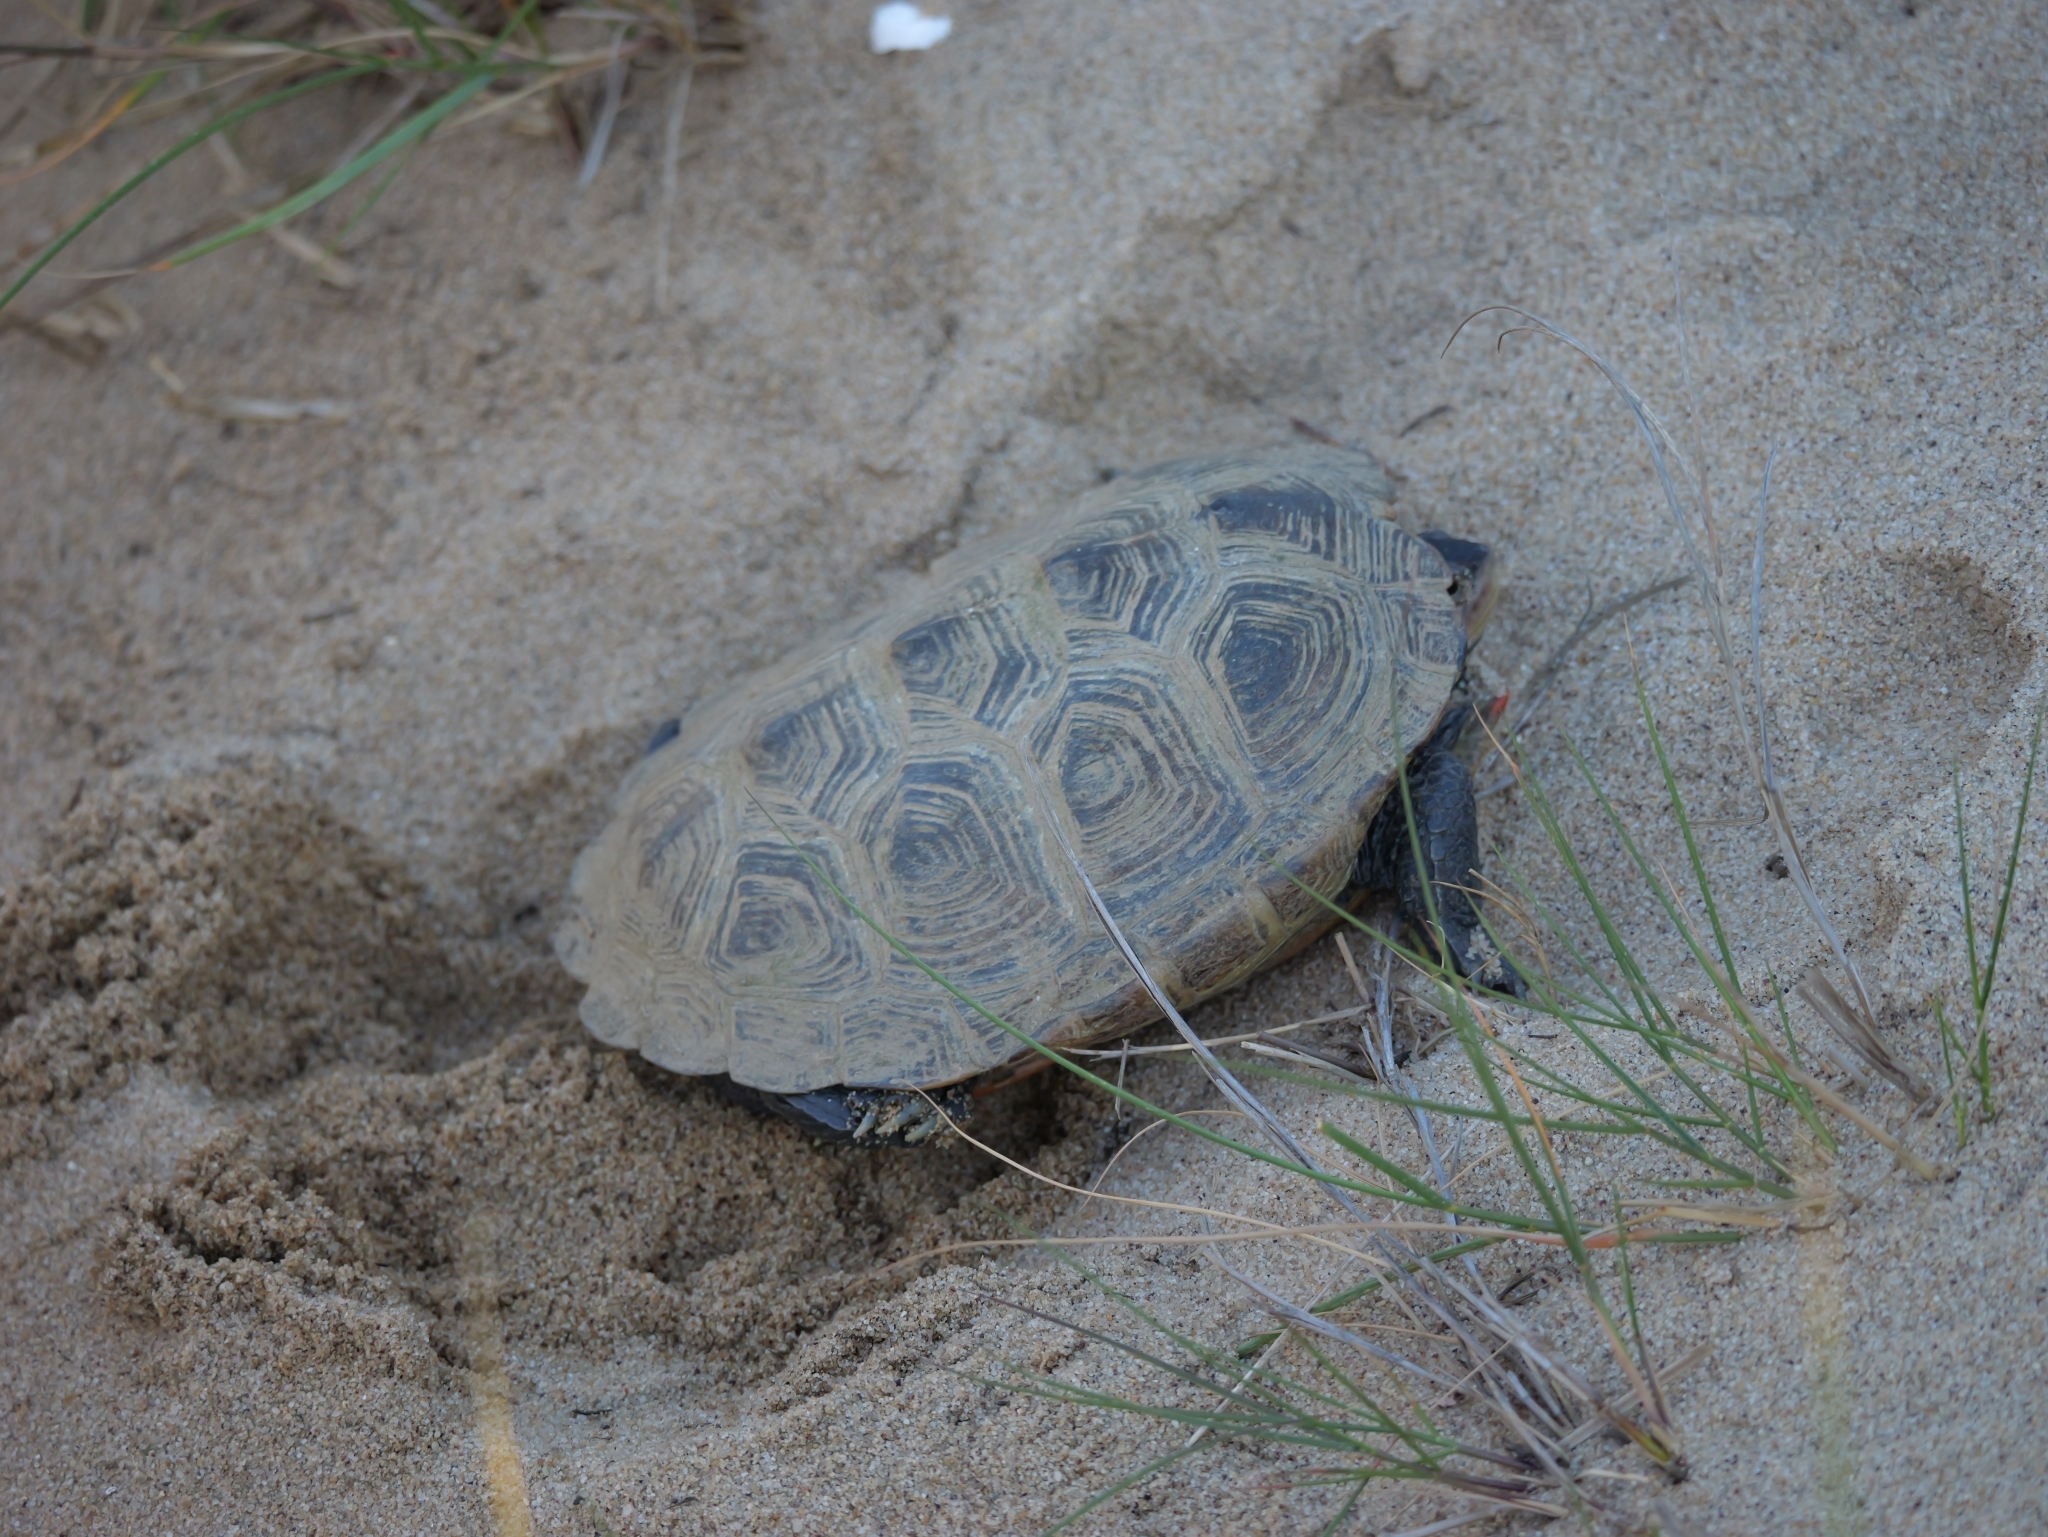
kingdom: Animalia
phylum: Chordata
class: Testudines
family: Emydidae
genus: Malaclemys
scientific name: Malaclemys terrapin
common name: Diamondback terrapin
